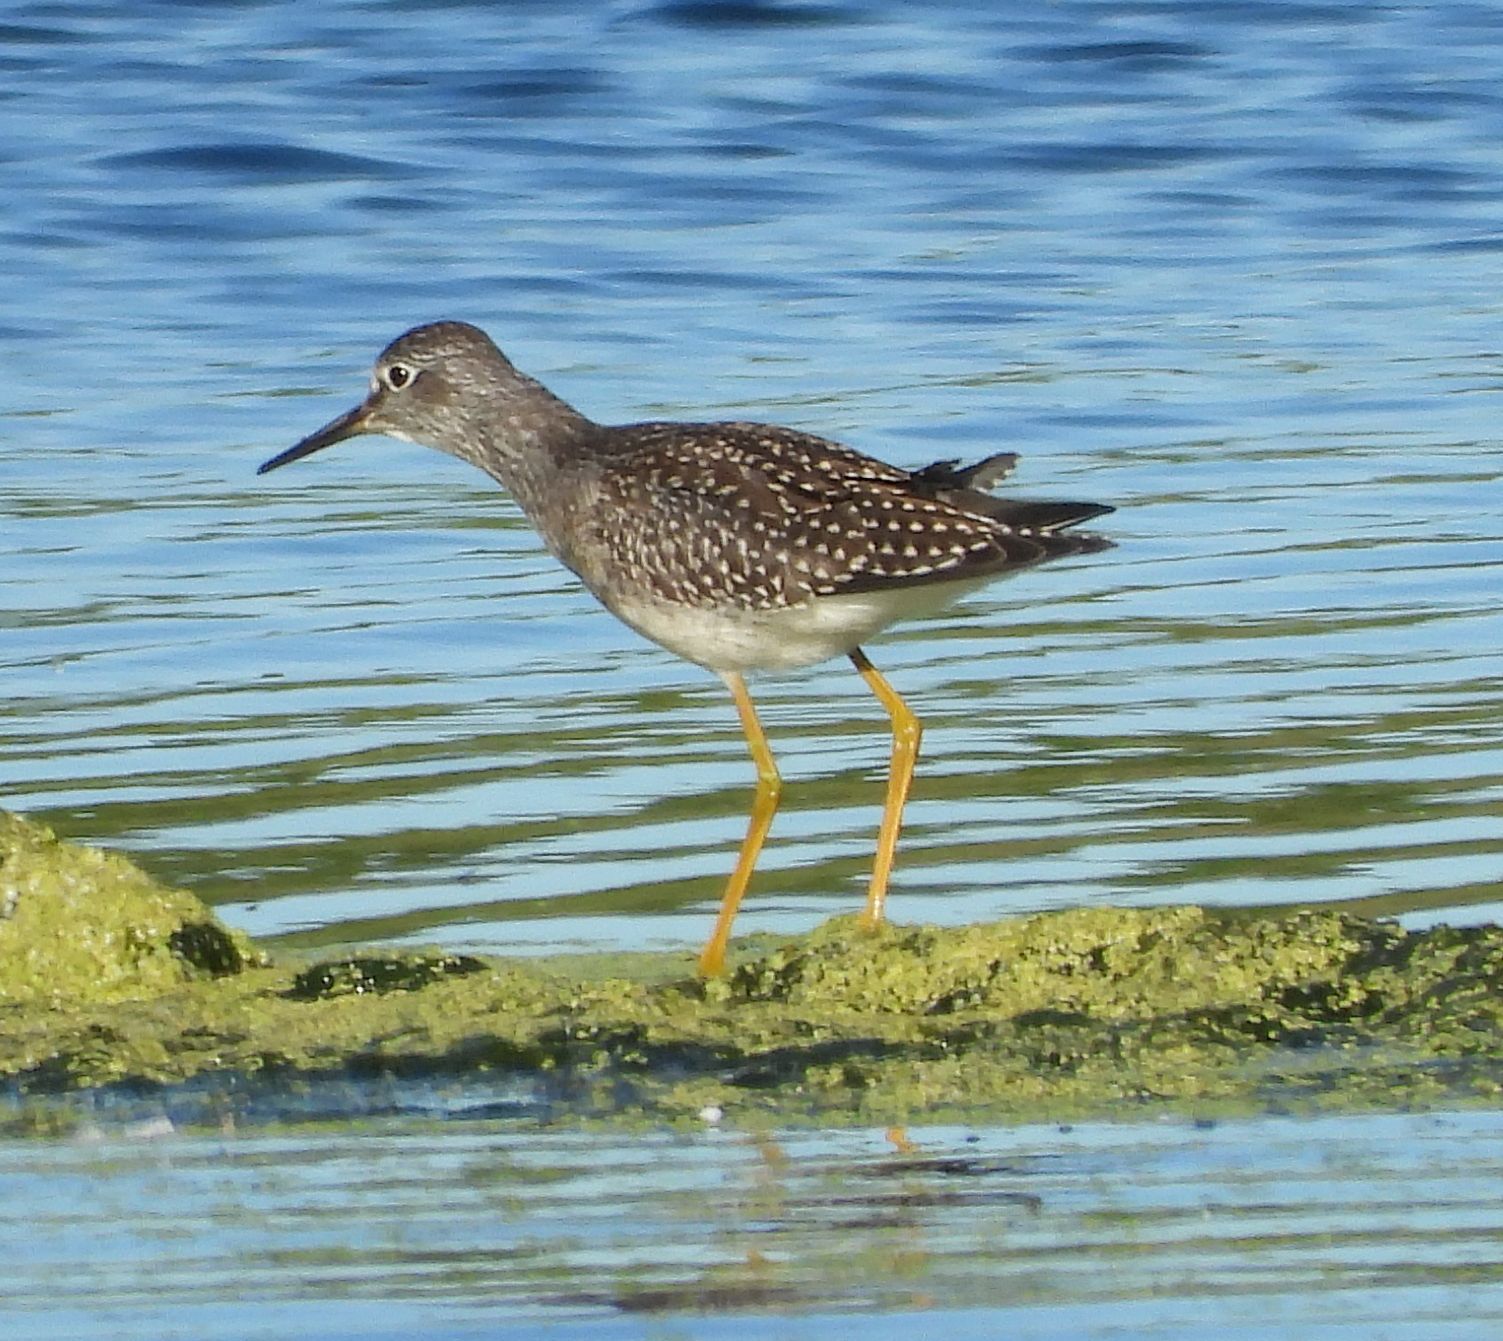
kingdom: Animalia
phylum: Chordata
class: Aves
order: Charadriiformes
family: Scolopacidae
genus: Tringa
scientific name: Tringa flavipes
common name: Lesser yellowlegs
